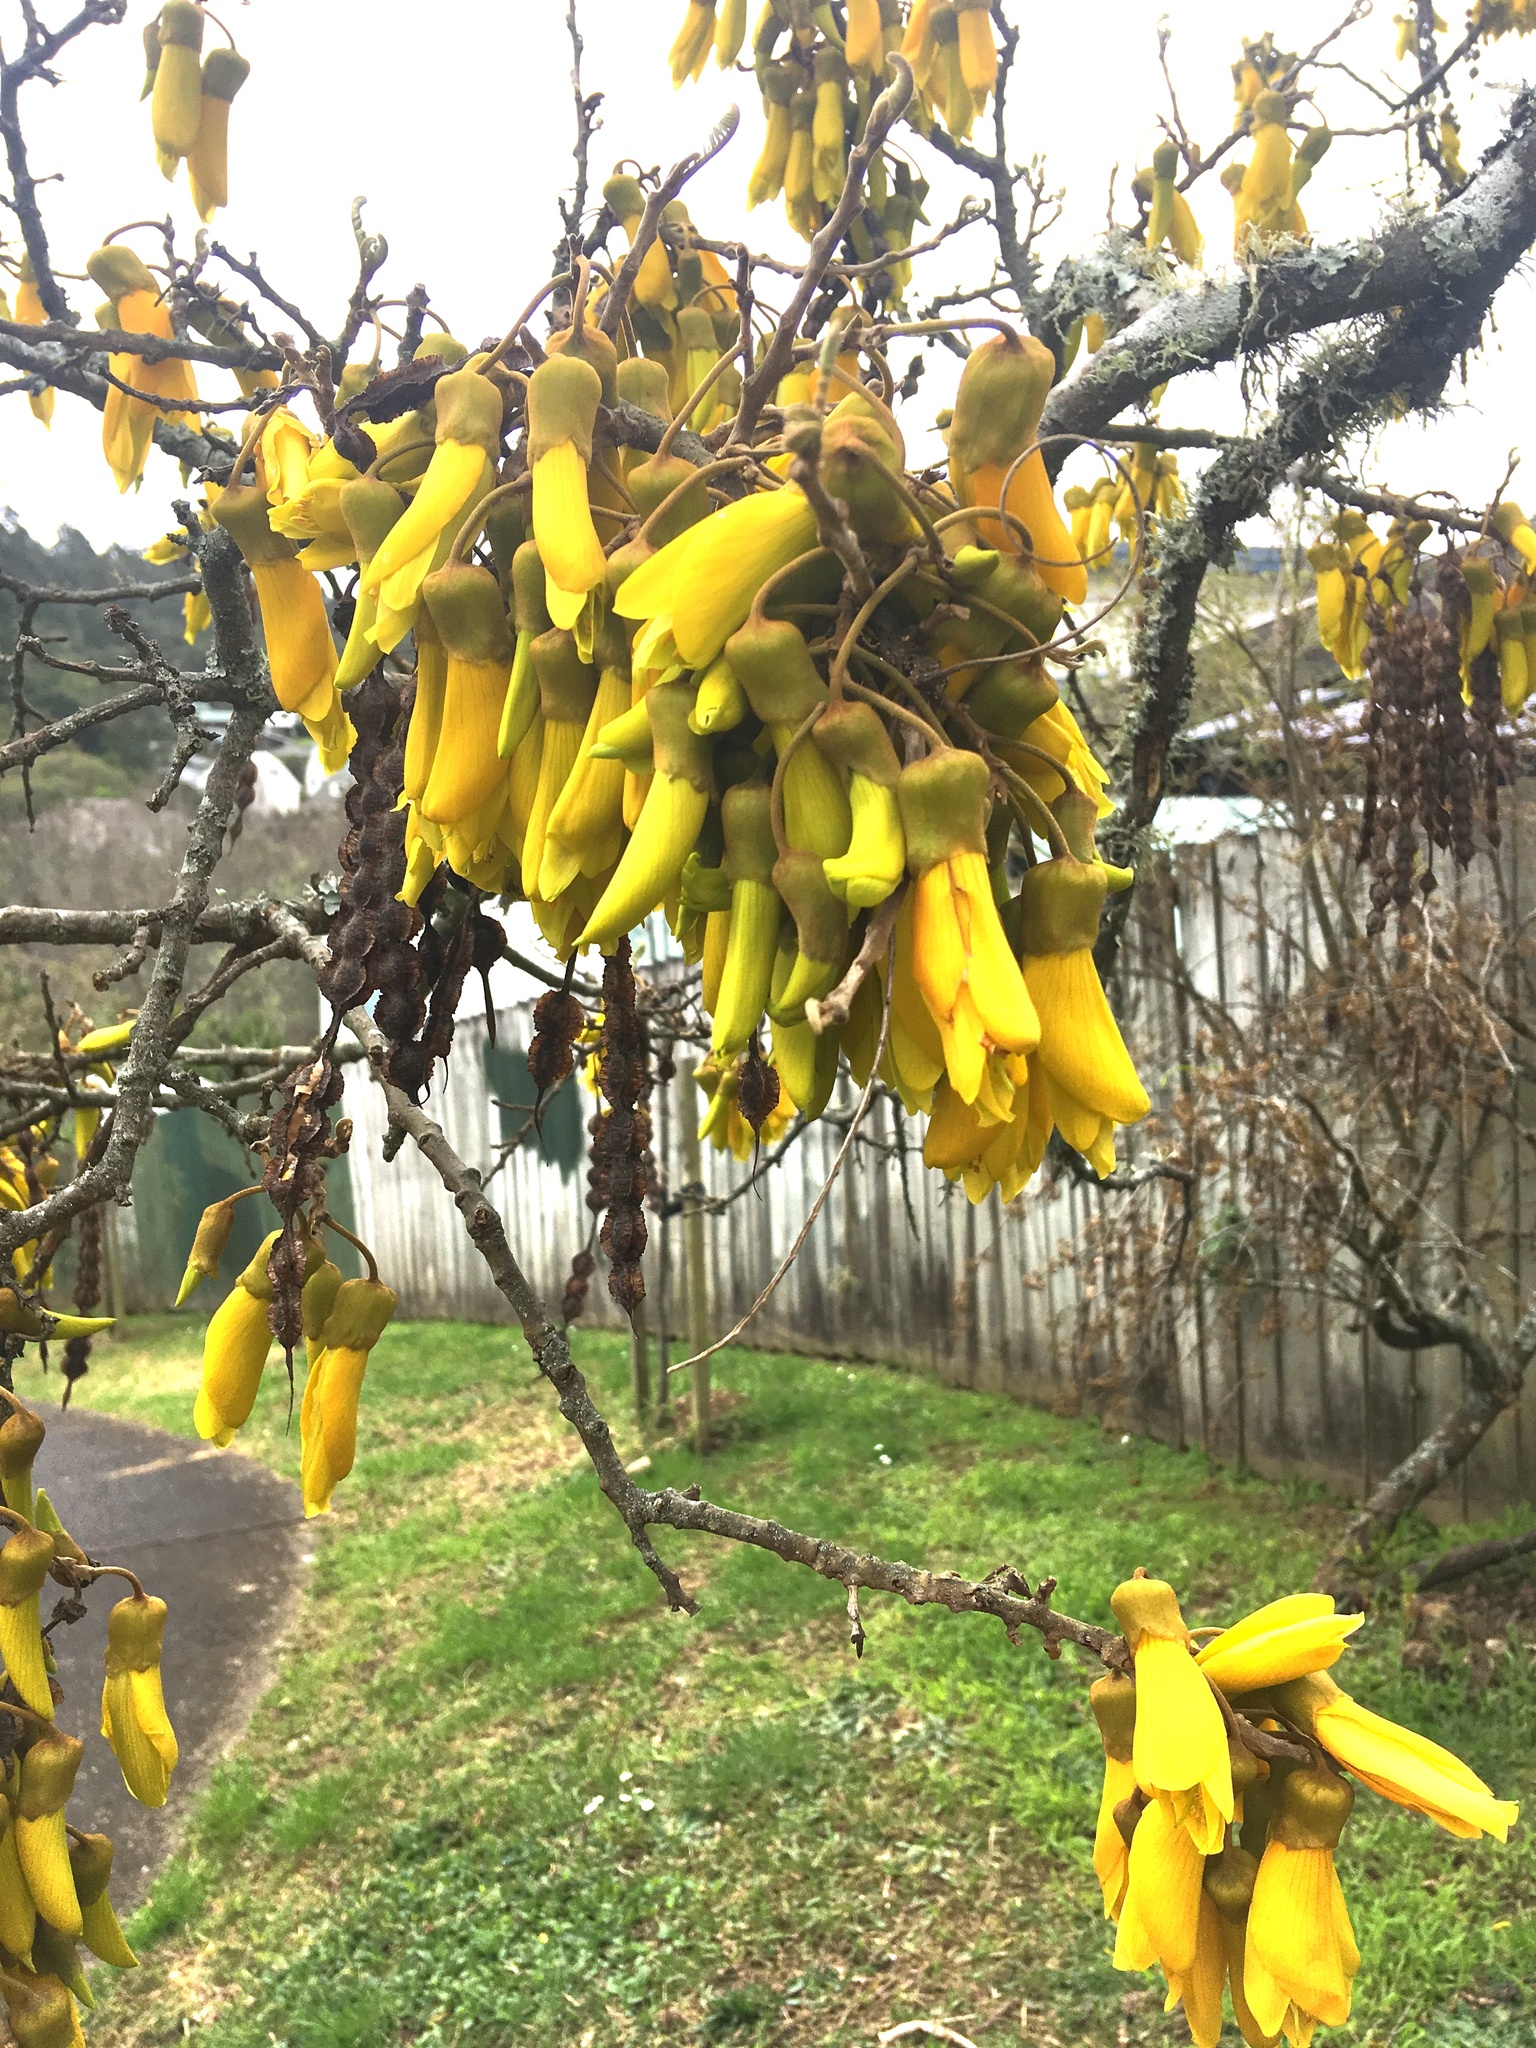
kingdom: Plantae
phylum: Tracheophyta
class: Magnoliopsida
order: Fabales
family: Fabaceae
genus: Sophora
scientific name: Sophora microphylla
